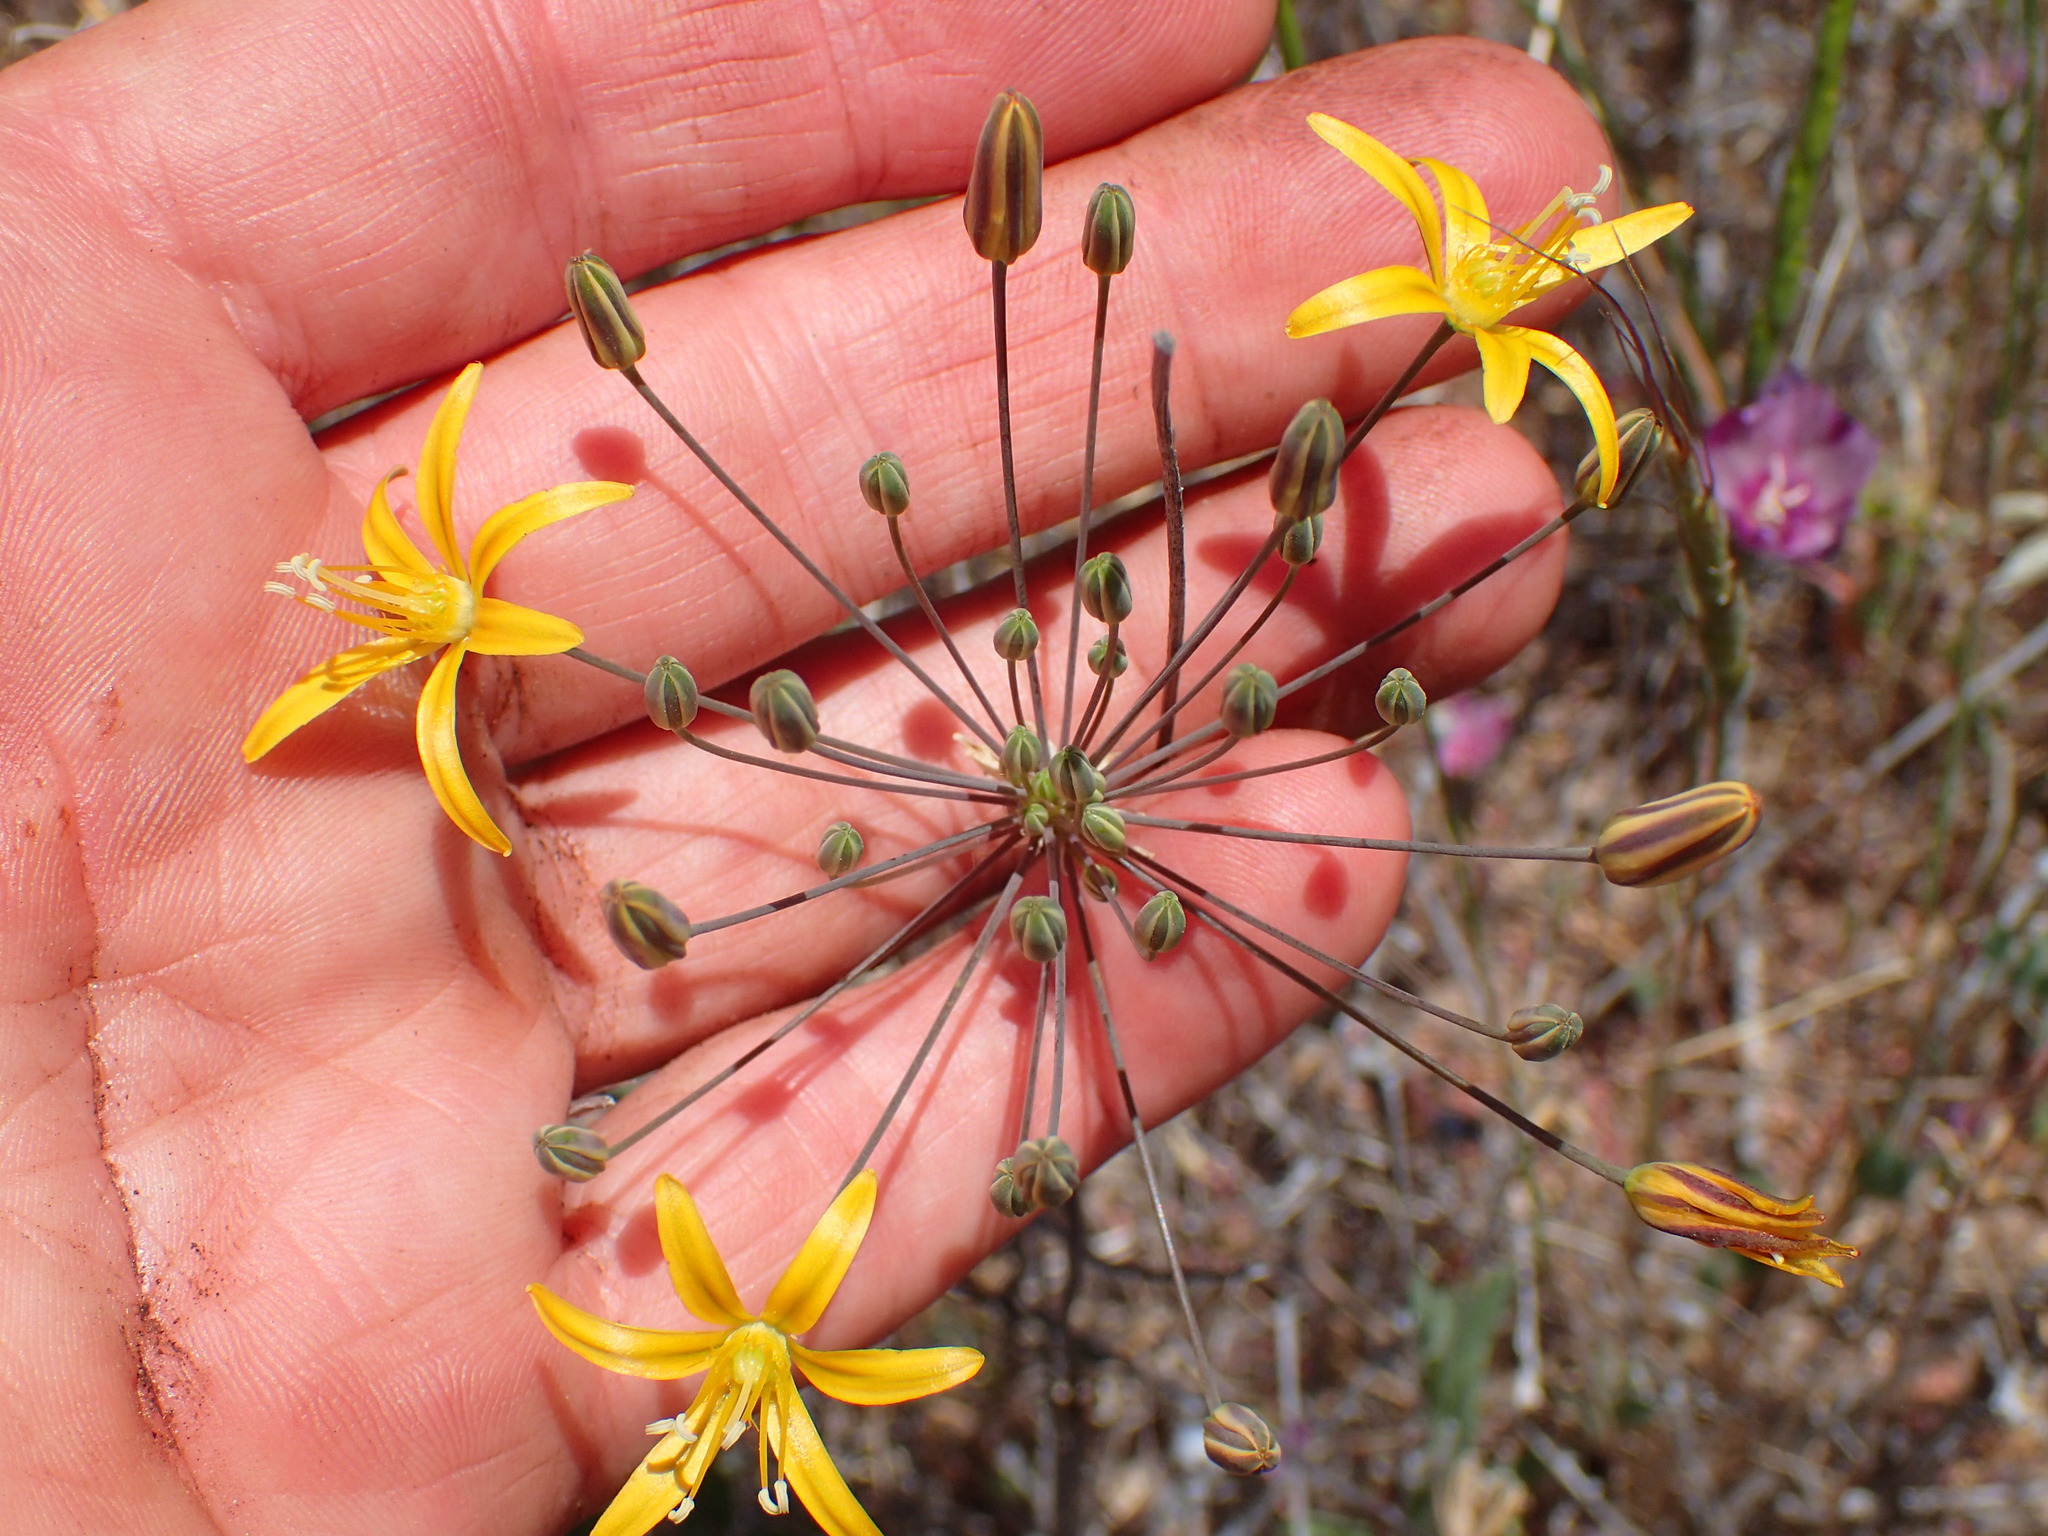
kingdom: Plantae
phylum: Tracheophyta
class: Liliopsida
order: Asparagales
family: Asparagaceae
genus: Bloomeria
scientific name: Bloomeria crocea
